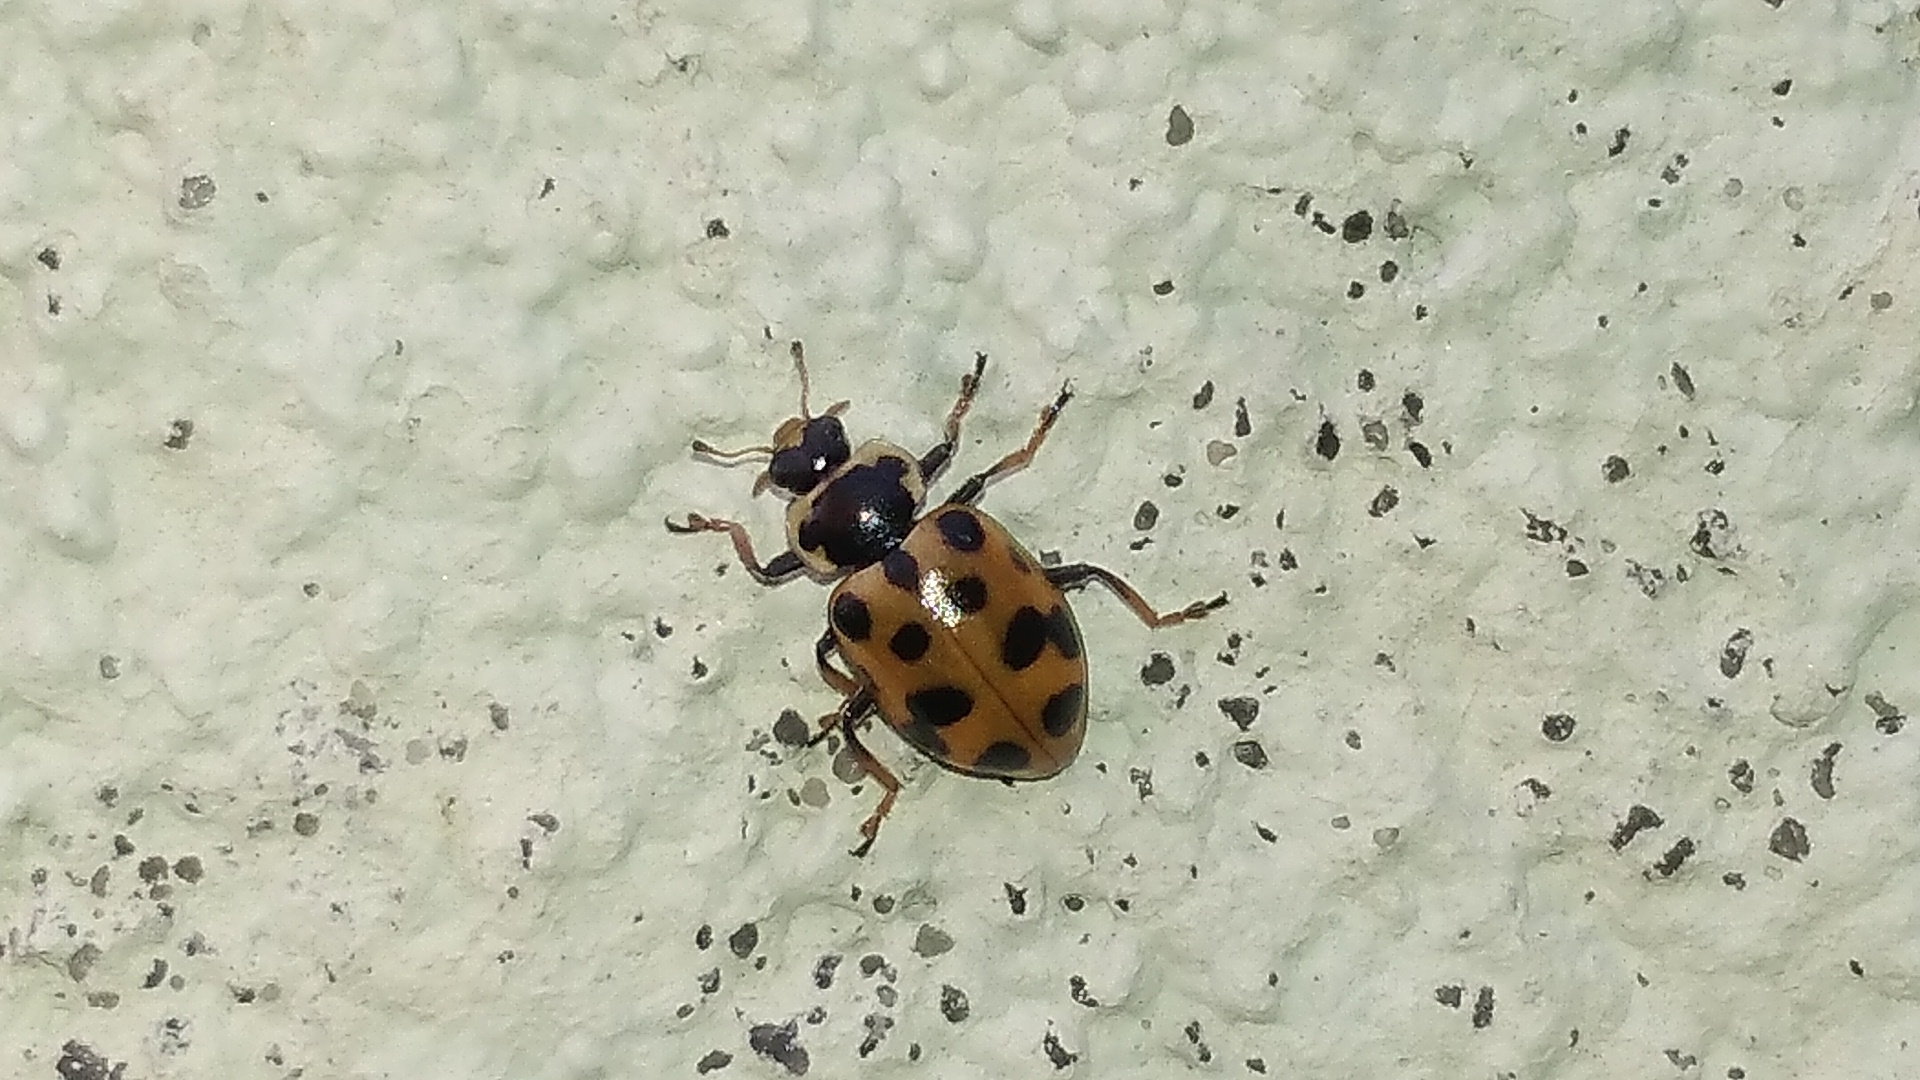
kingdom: Animalia
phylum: Arthropoda
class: Insecta
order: Coleoptera
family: Coccinellidae
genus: Hippodamia
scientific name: Hippodamia tredecimpunctata
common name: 13-spot ladybird
